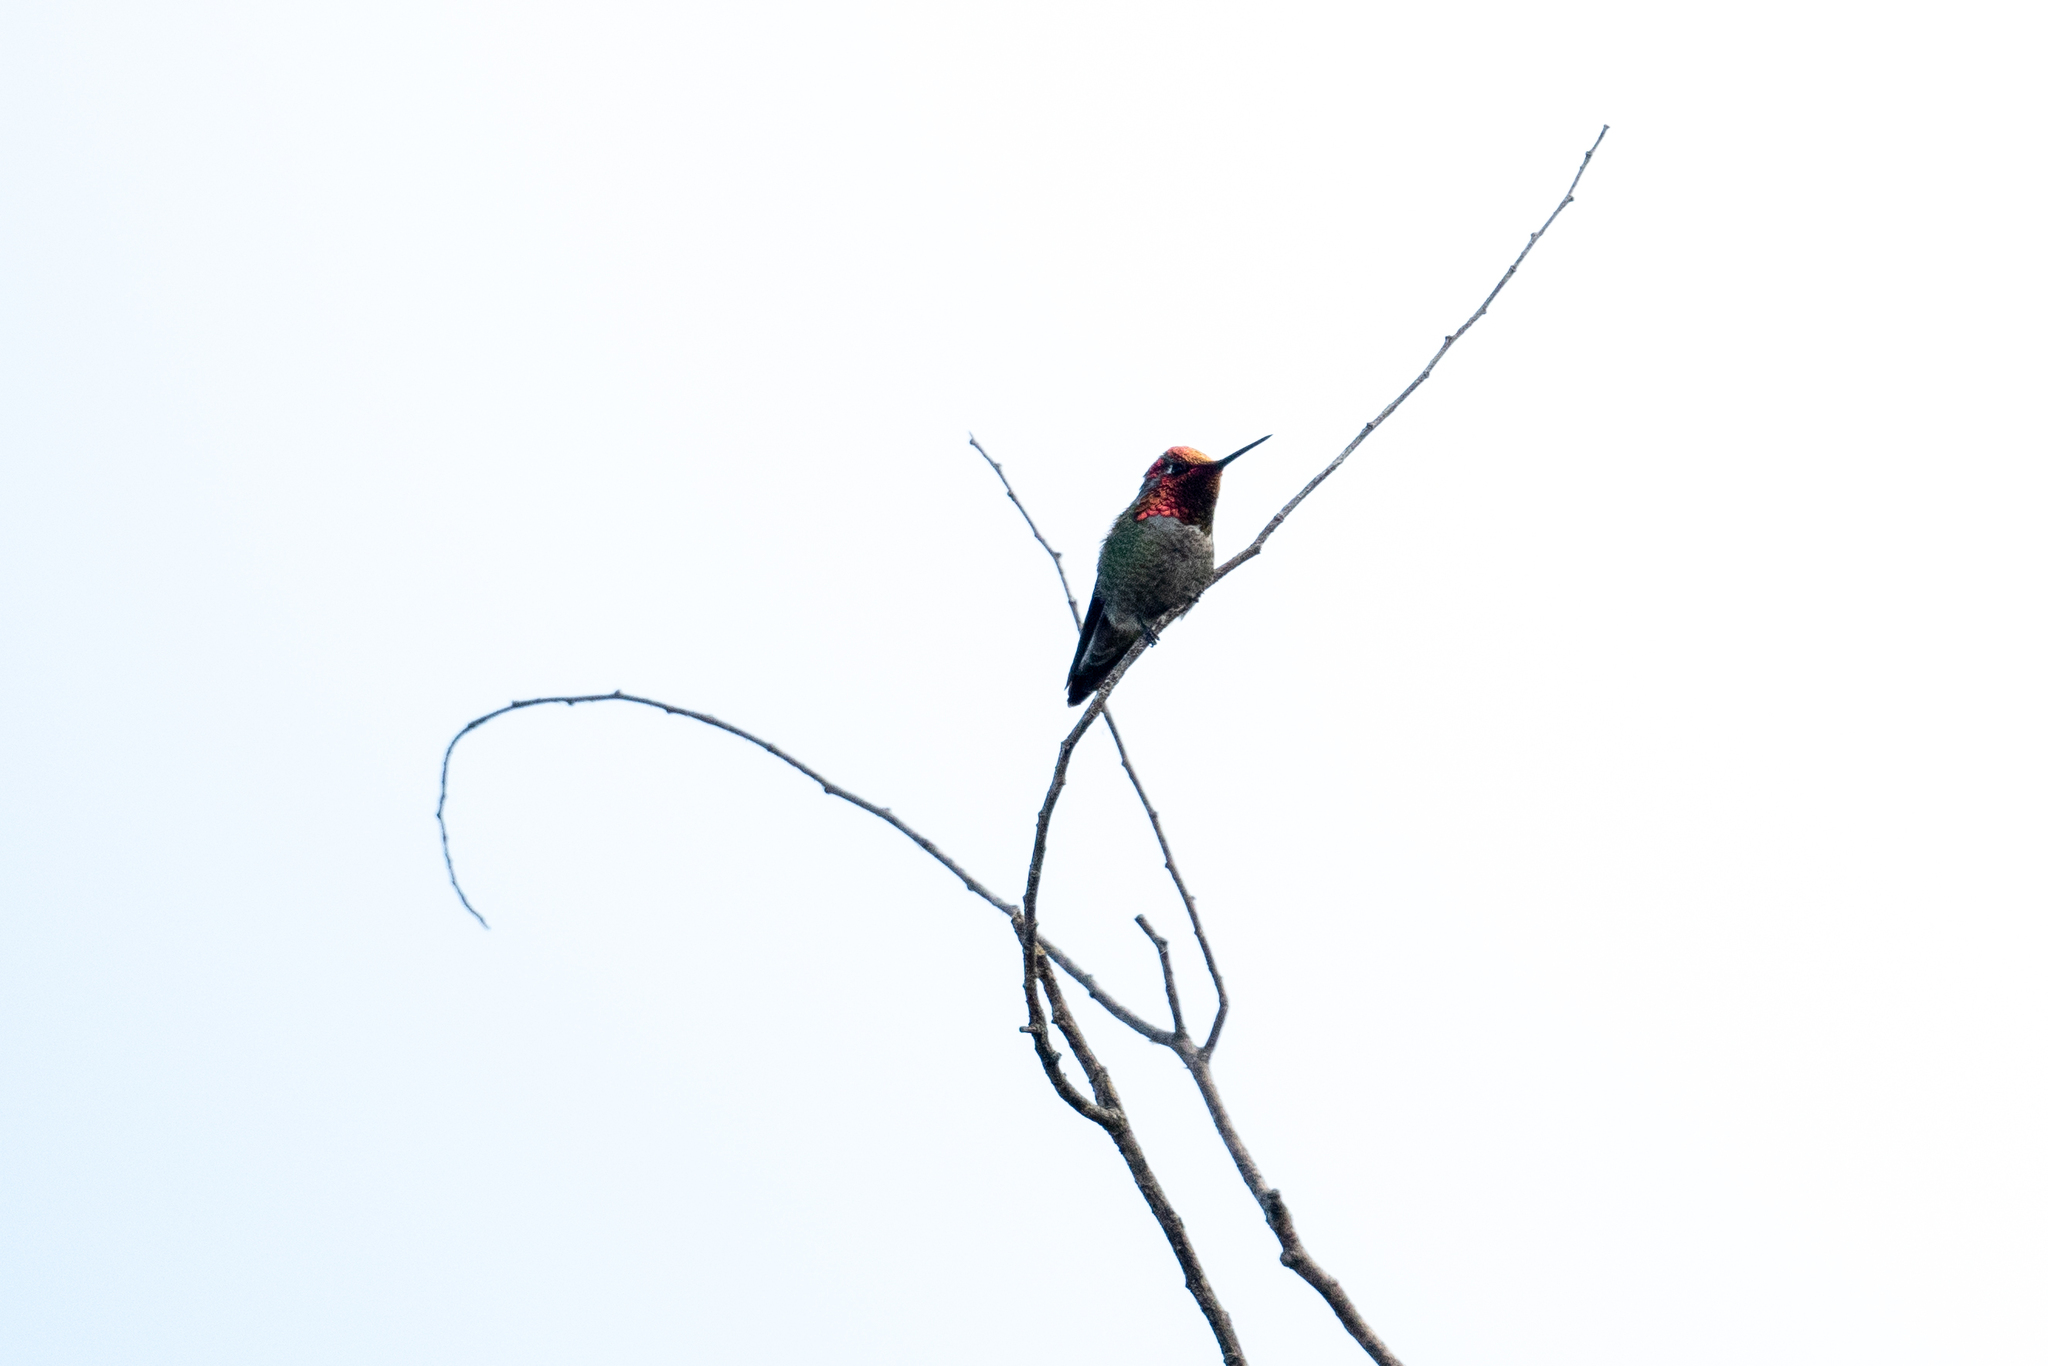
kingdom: Animalia
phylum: Chordata
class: Aves
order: Apodiformes
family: Trochilidae
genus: Calypte
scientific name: Calypte anna
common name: Anna's hummingbird
